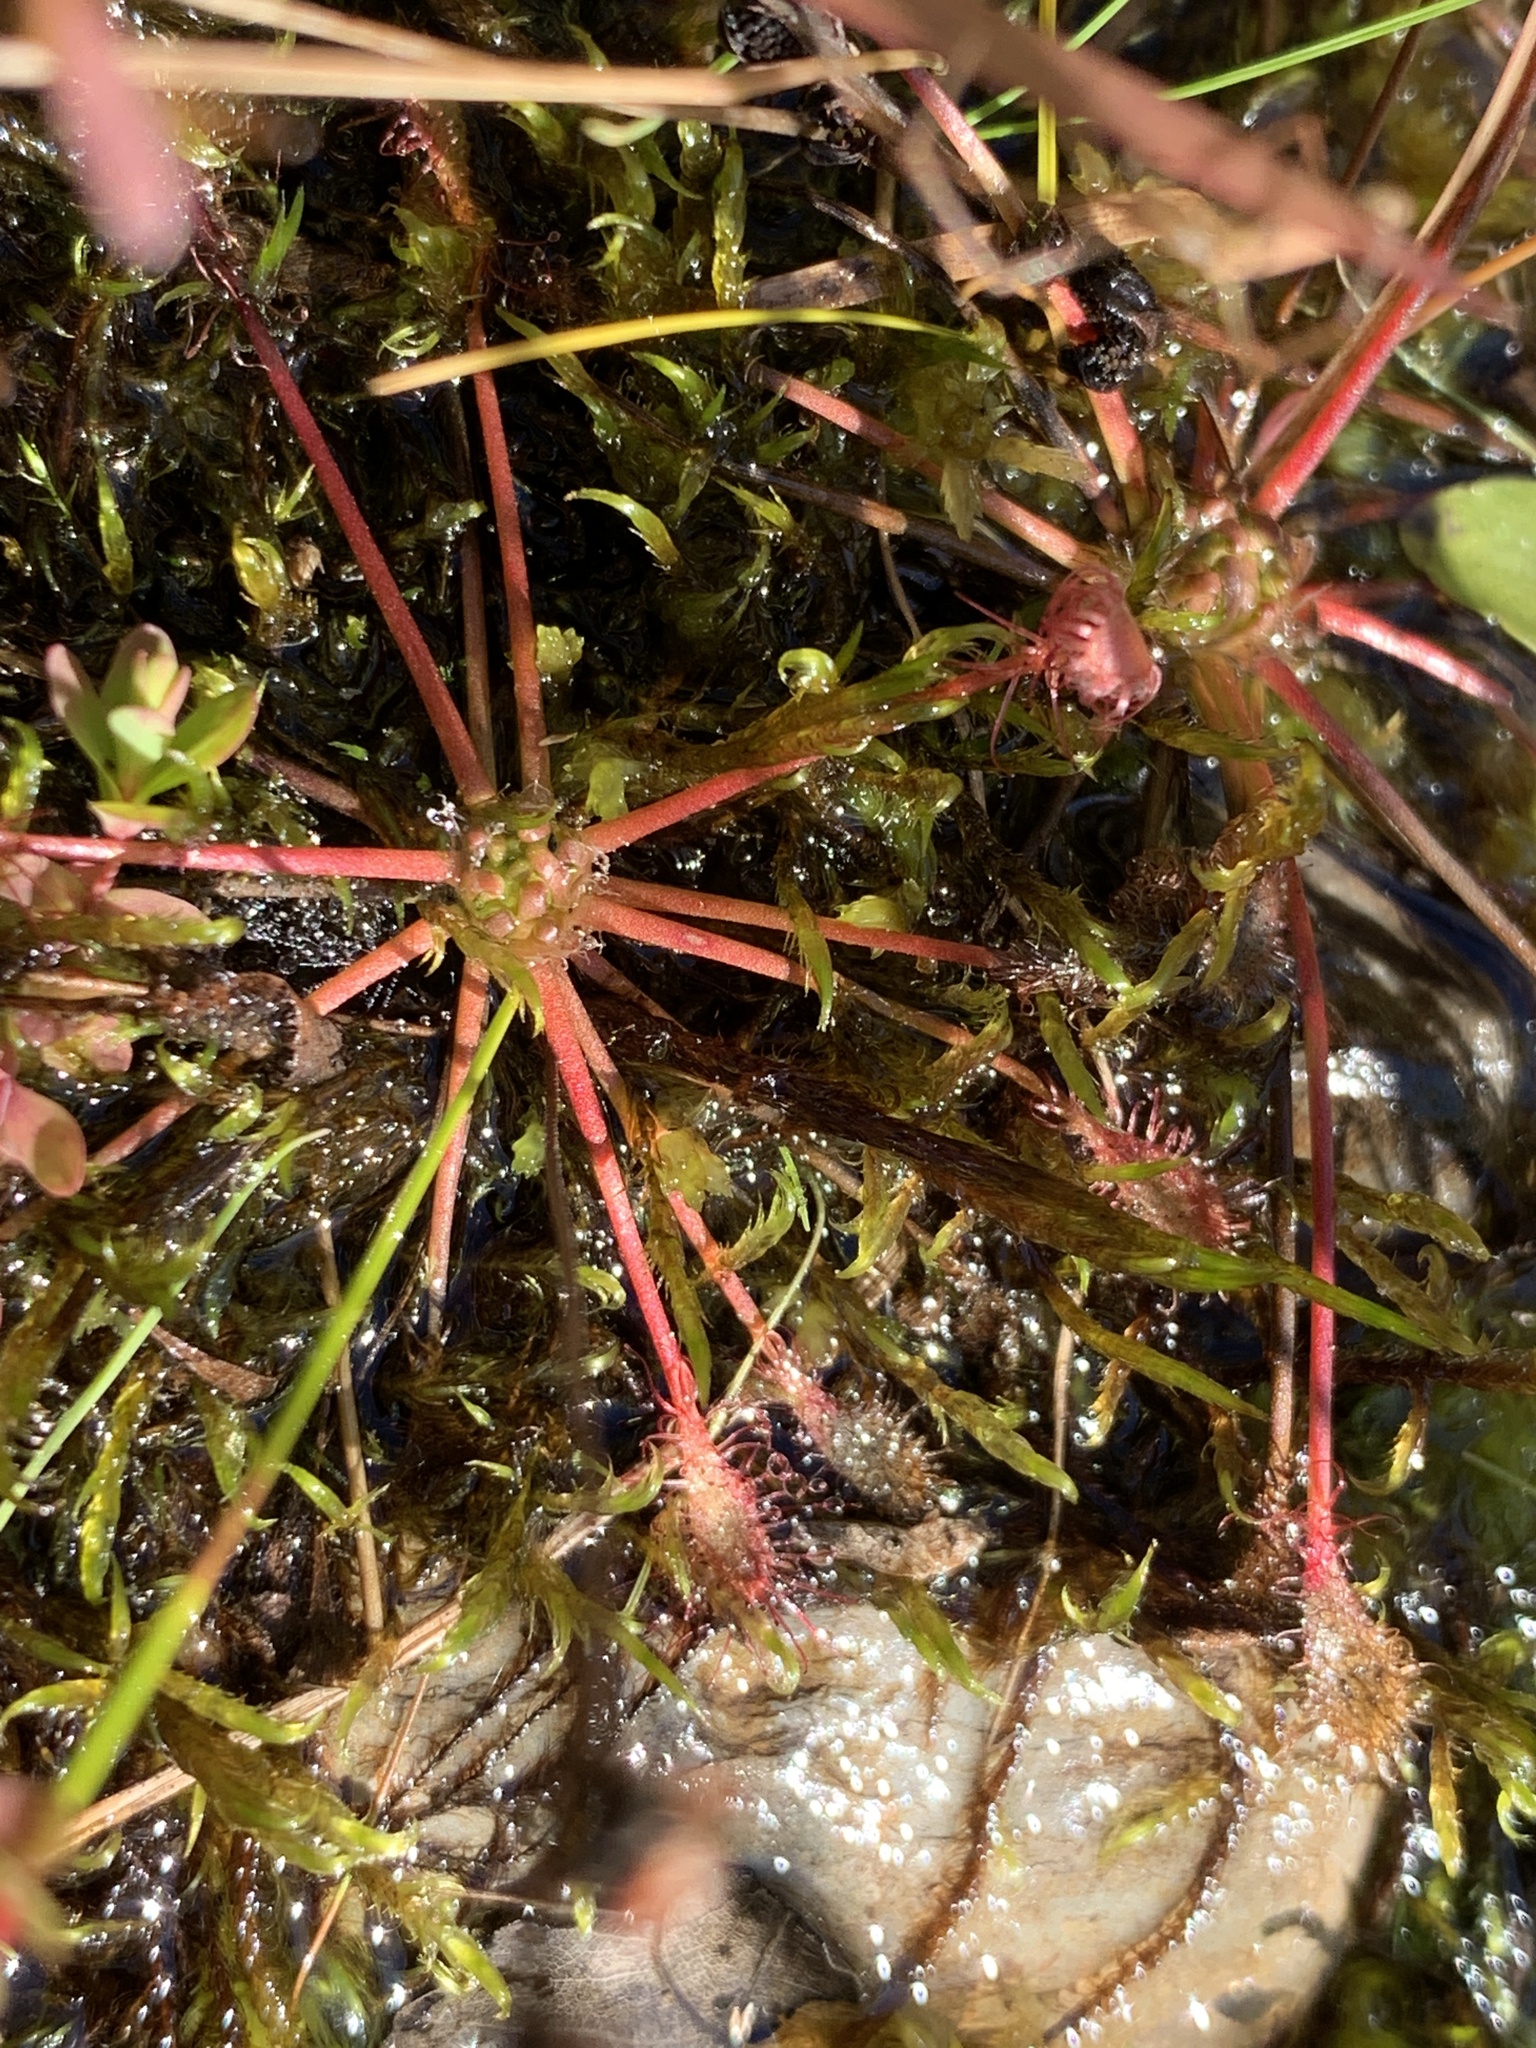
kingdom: Plantae
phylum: Tracheophyta
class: Magnoliopsida
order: Caryophyllales
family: Droseraceae
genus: Drosera
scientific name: Drosera intermedia
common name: Oblong-leaved sundew
